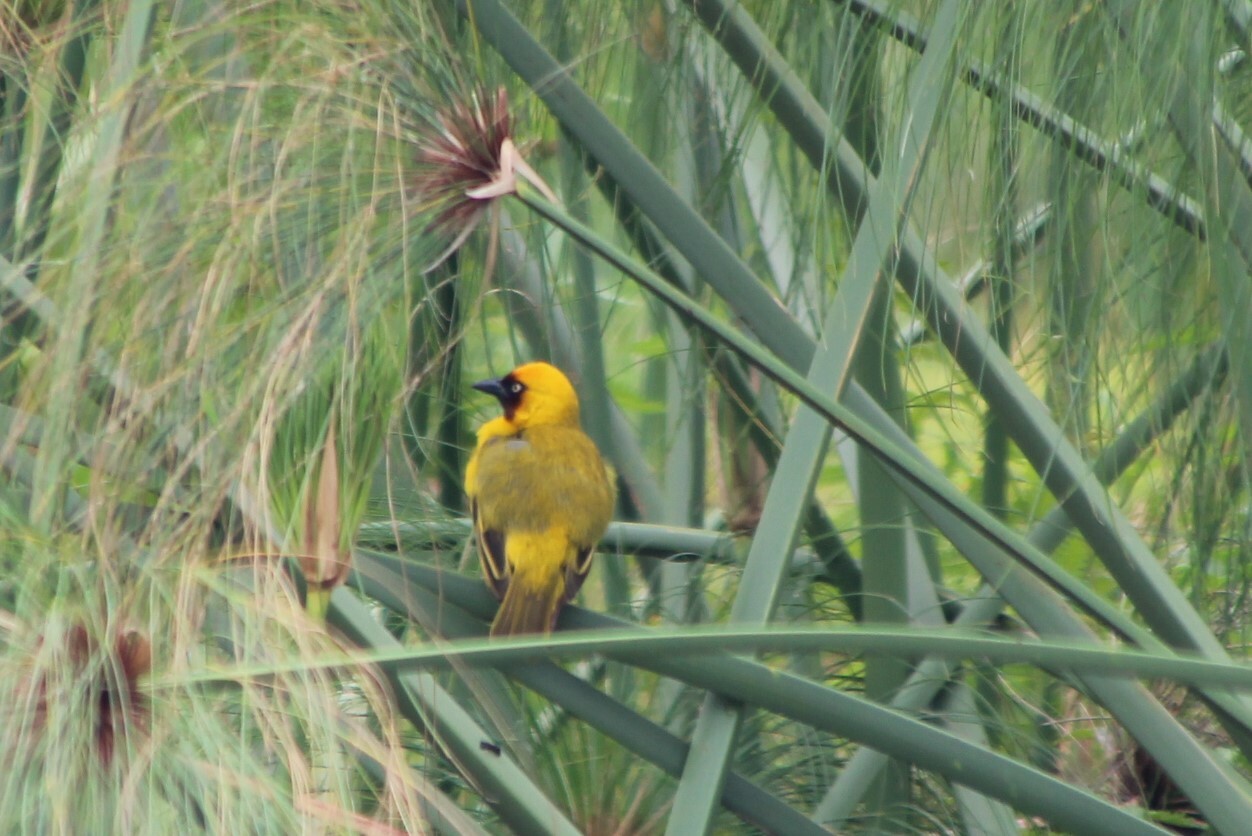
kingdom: Animalia
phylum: Chordata
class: Aves
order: Passeriformes
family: Ploceidae
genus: Ploceus
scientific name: Ploceus castanops
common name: Northern brown-throated weaver
